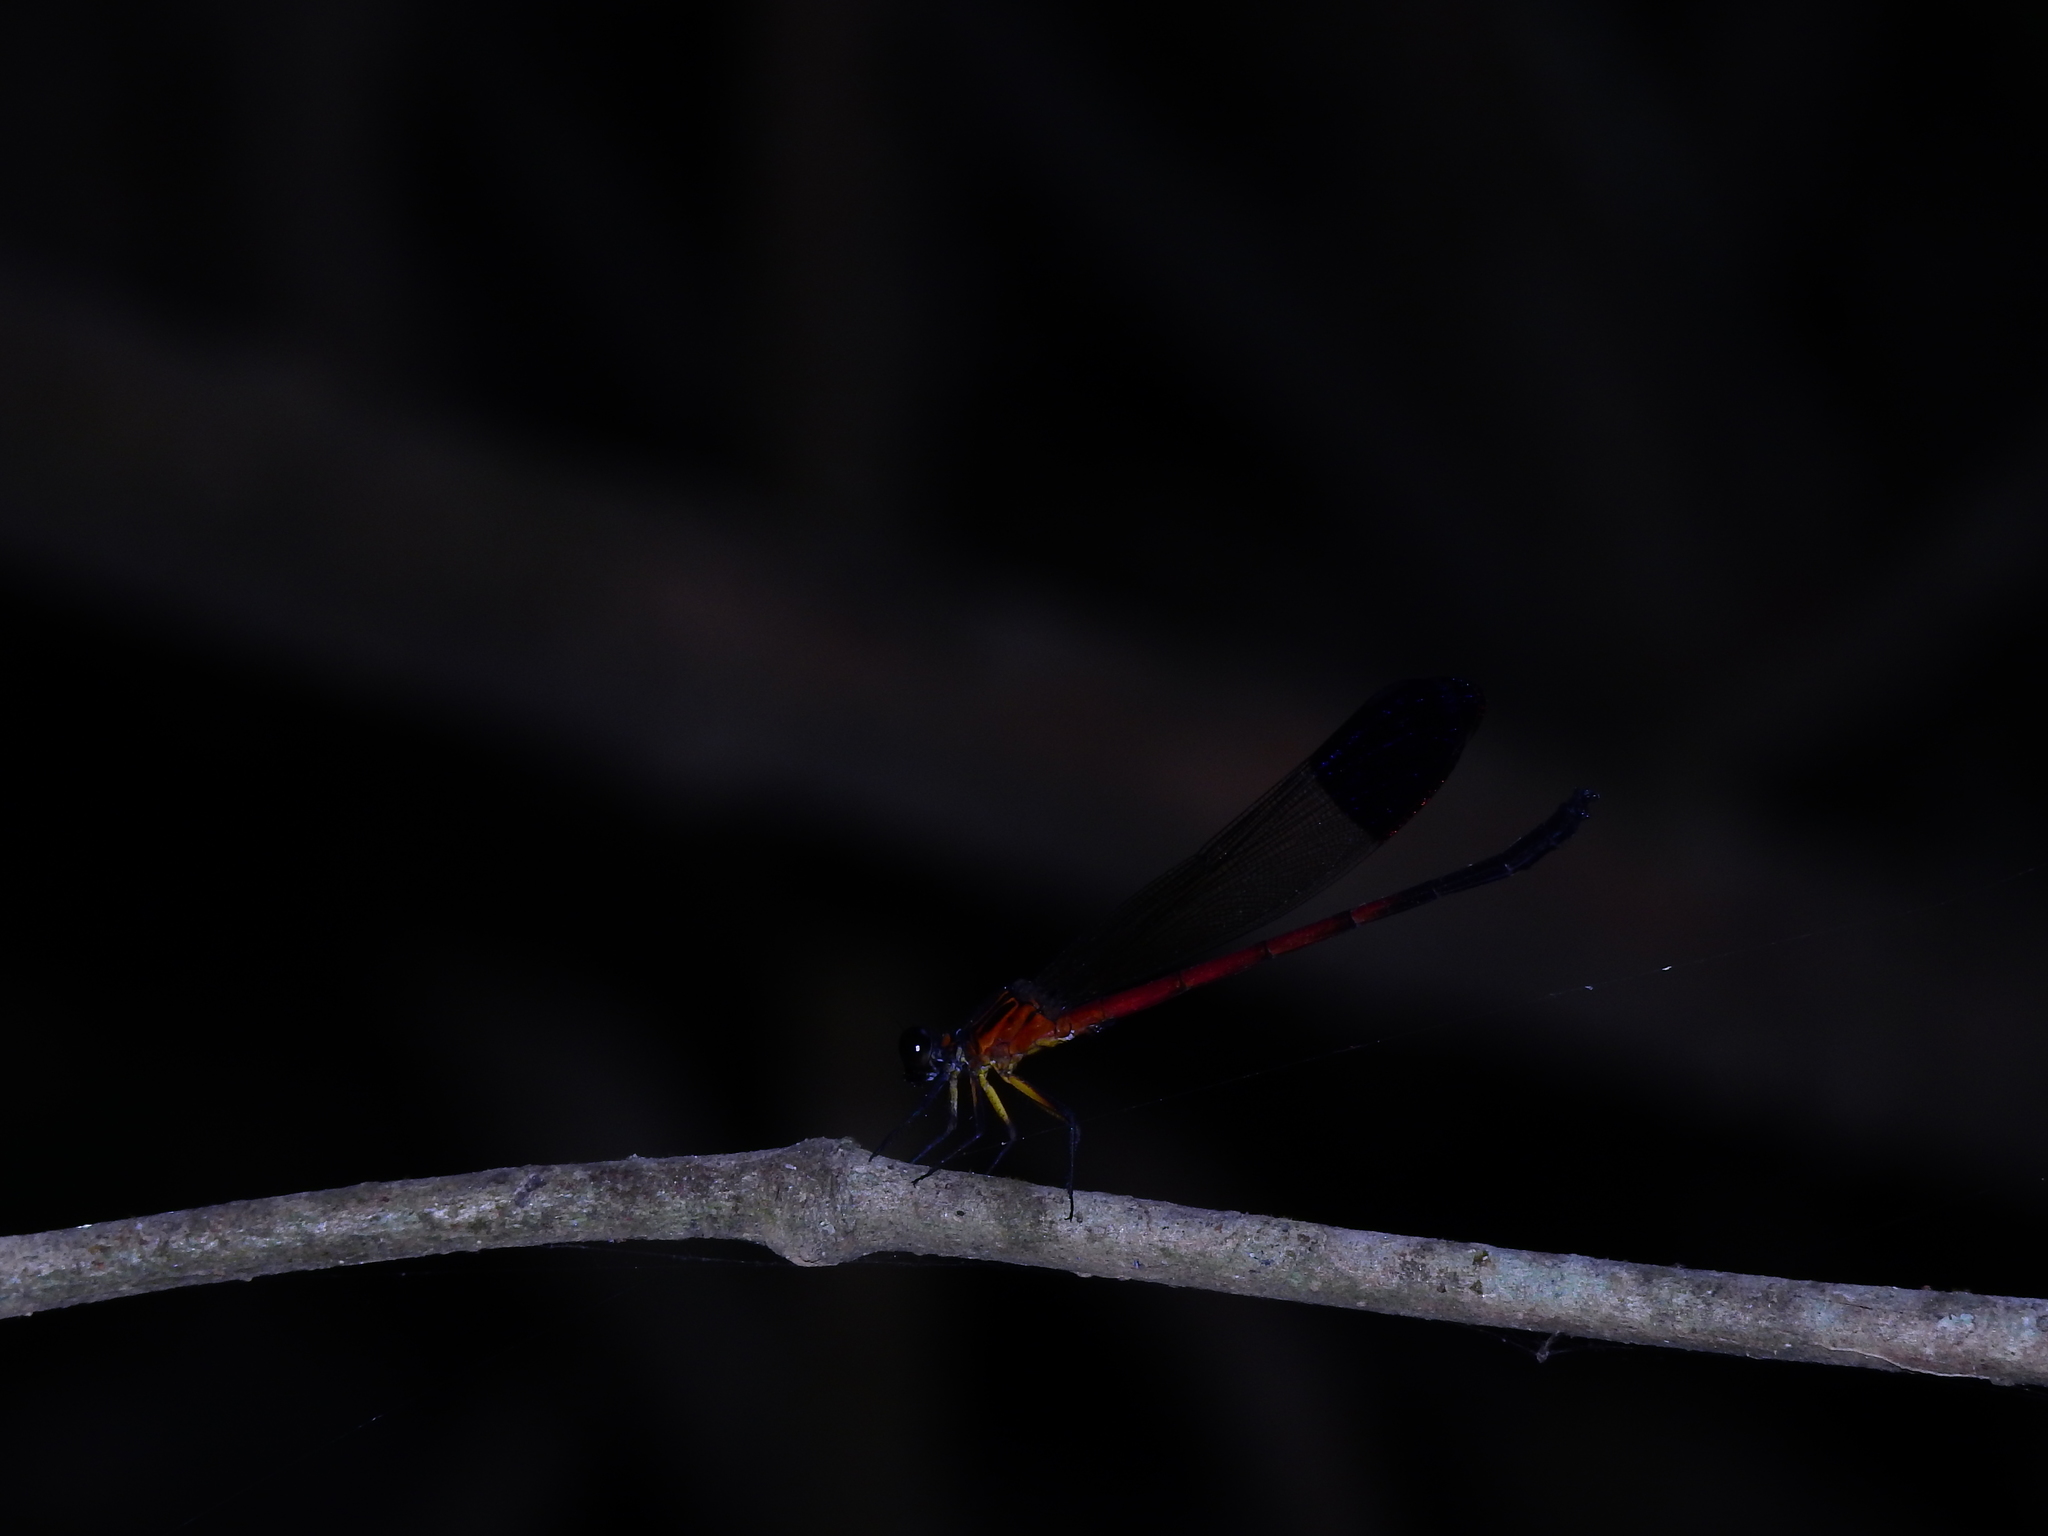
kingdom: Animalia
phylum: Arthropoda
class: Insecta
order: Odonata
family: Euphaeidae
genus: Euphaea
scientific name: Euphaea dispar
